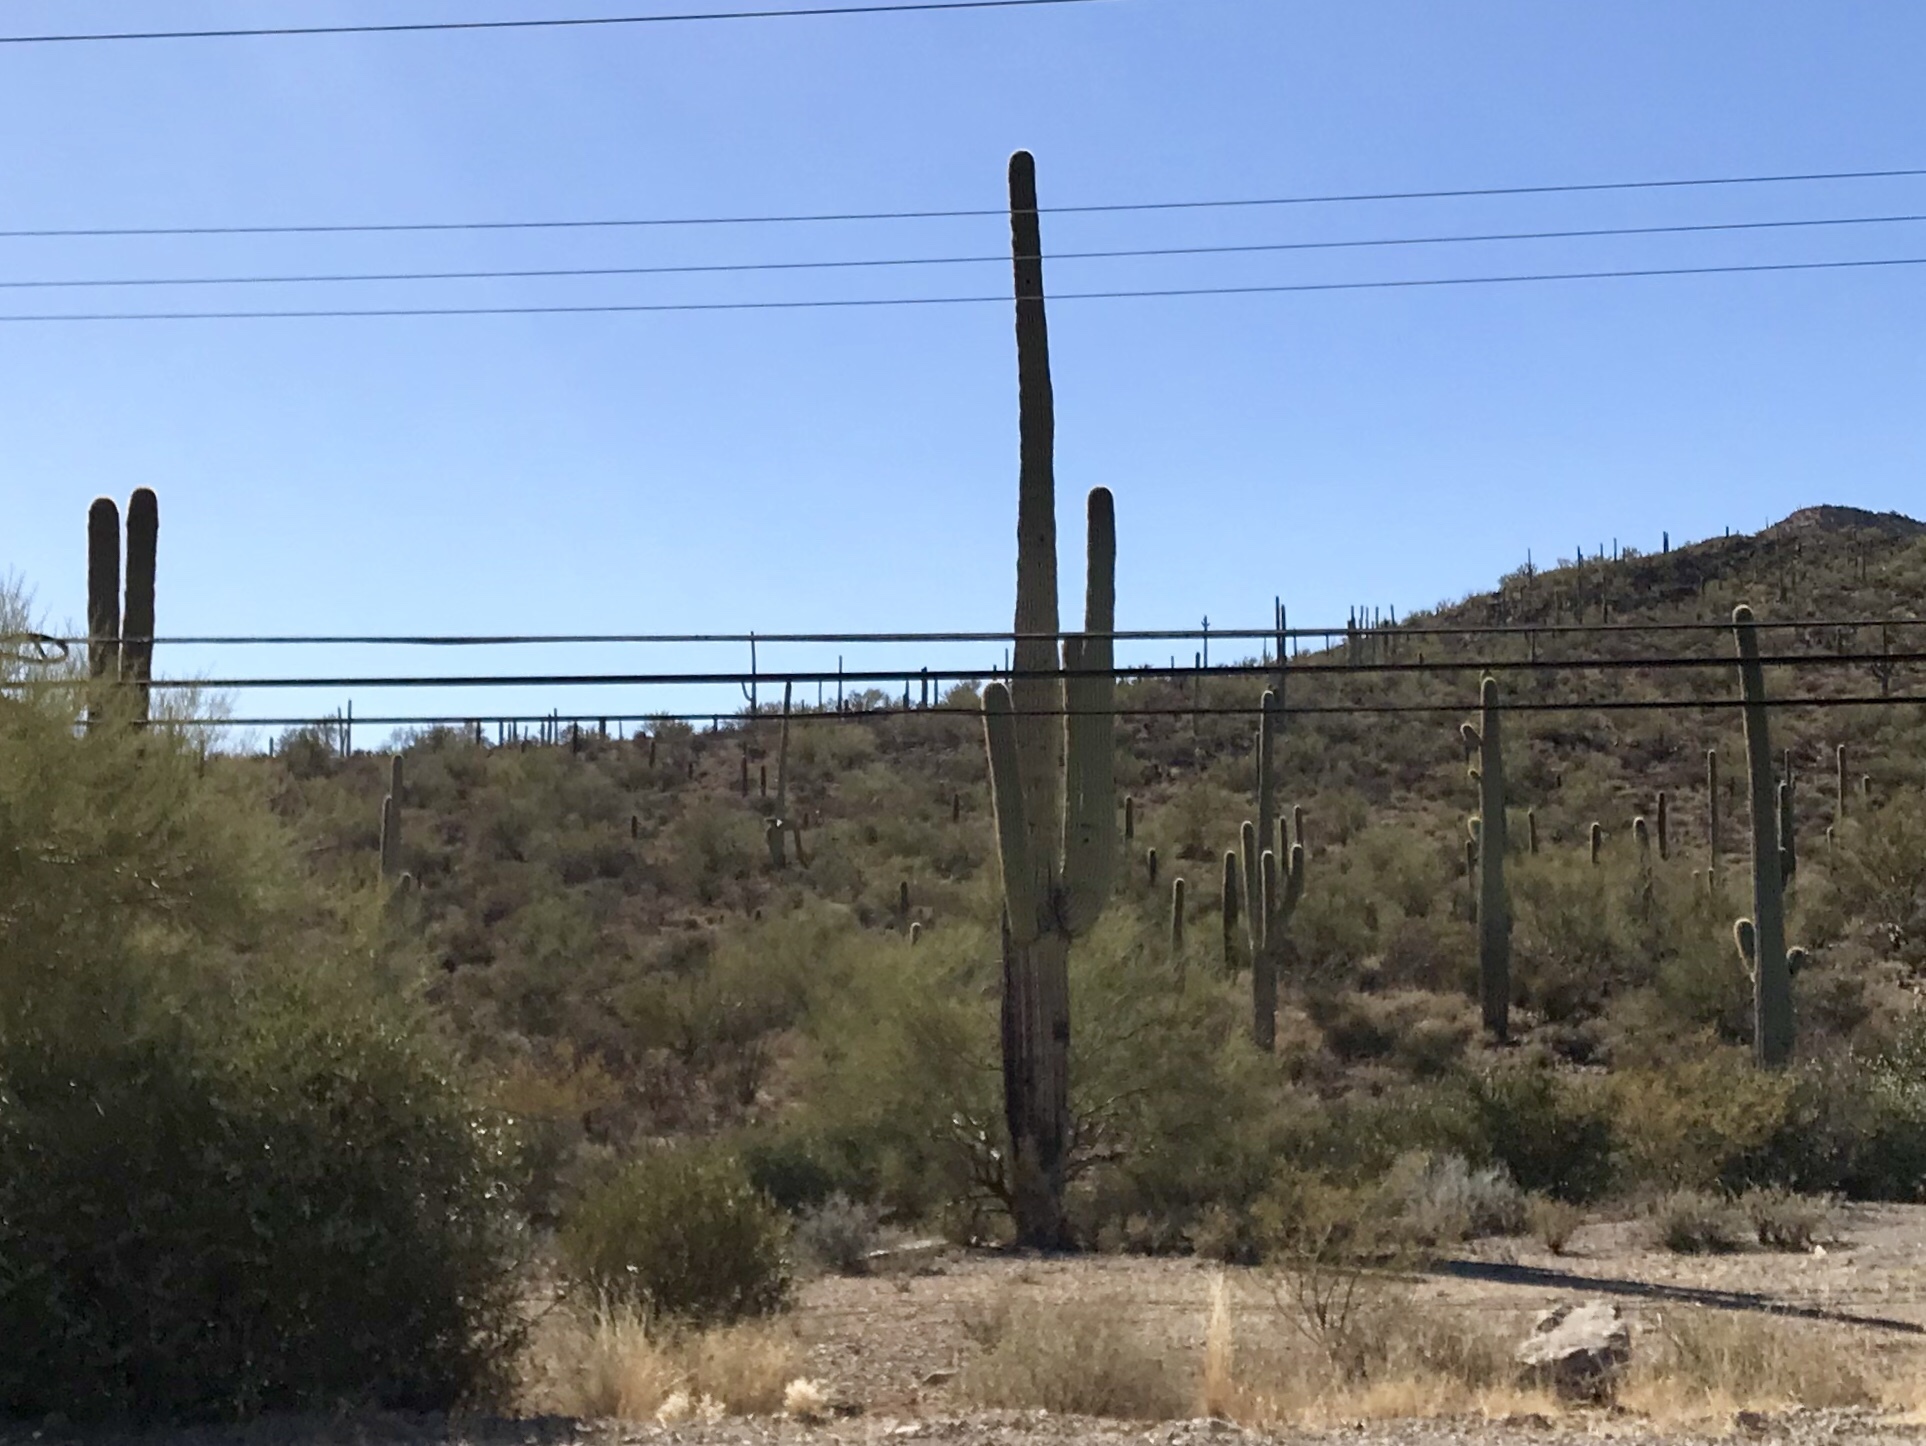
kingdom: Plantae
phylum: Tracheophyta
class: Magnoliopsida
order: Caryophyllales
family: Cactaceae
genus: Carnegiea
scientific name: Carnegiea gigantea
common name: Saguaro
